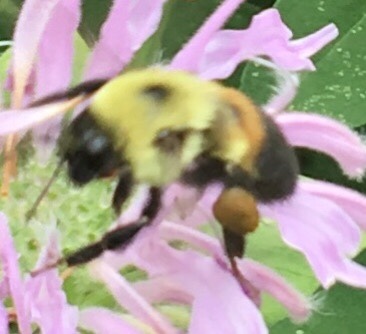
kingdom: Animalia
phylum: Arthropoda
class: Insecta
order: Hymenoptera
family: Apidae
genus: Bombus
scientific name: Bombus griseocollis
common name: Brown-belted bumble bee
